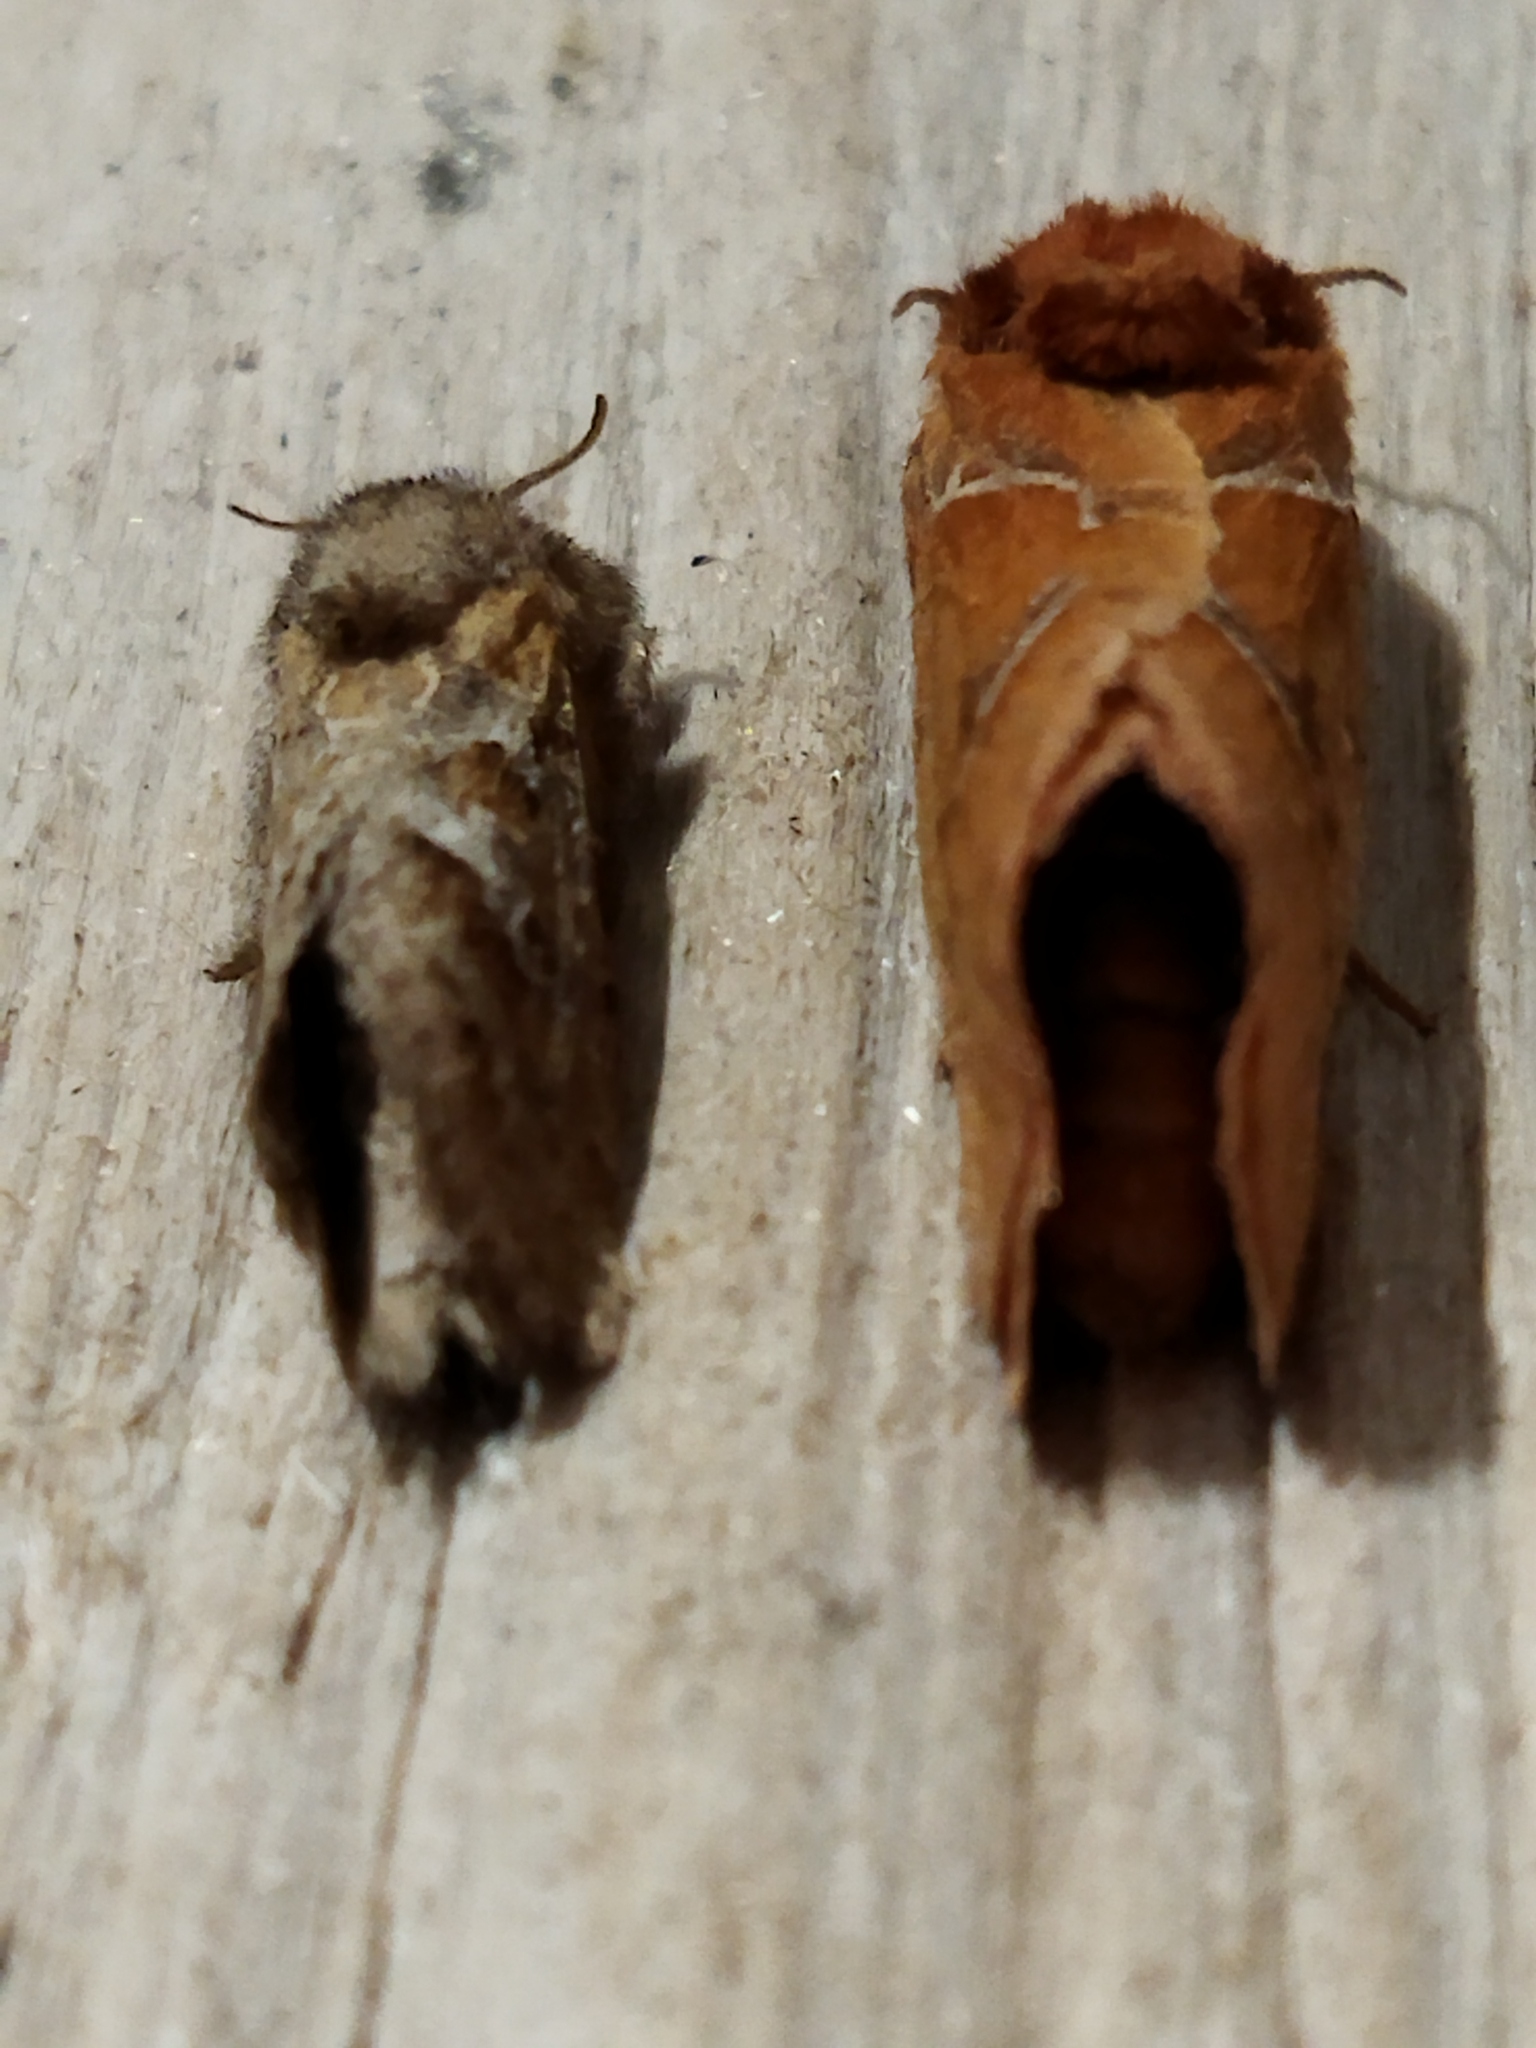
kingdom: Animalia
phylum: Arthropoda
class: Insecta
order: Lepidoptera
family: Hepialidae
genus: Triodia
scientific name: Triodia amasinus
